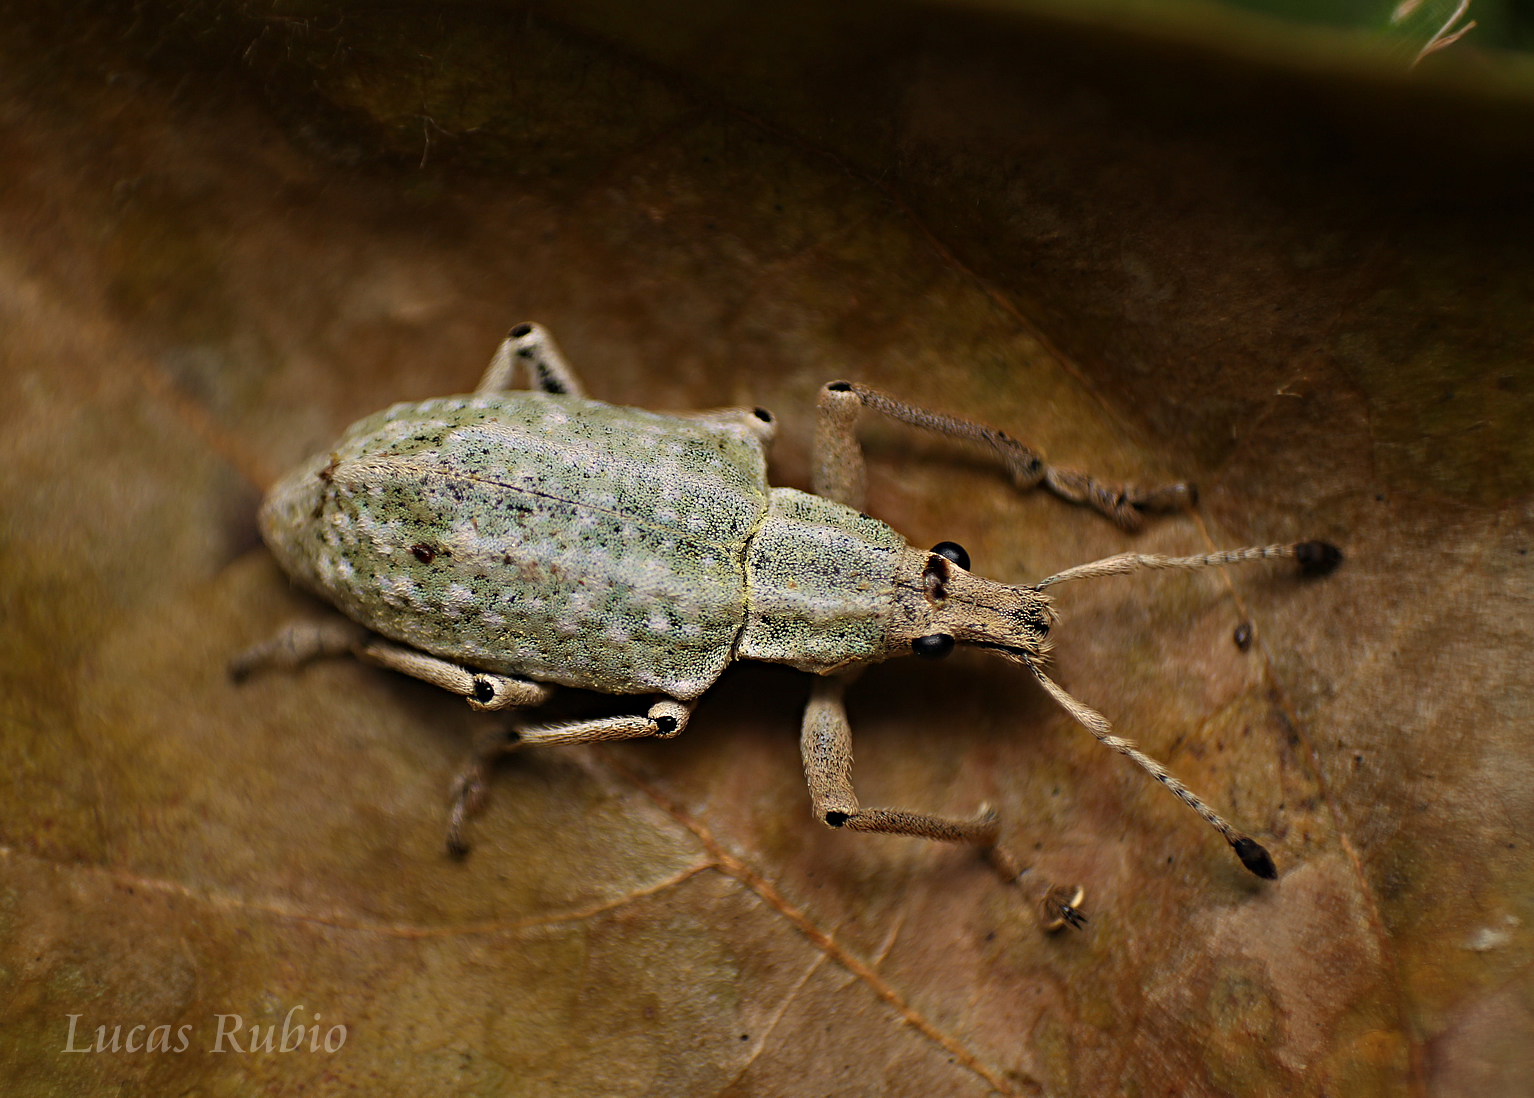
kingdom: Animalia
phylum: Arthropoda
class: Insecta
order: Coleoptera
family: Curculionidae
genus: Cyrtomon
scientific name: Cyrtomon gibber
